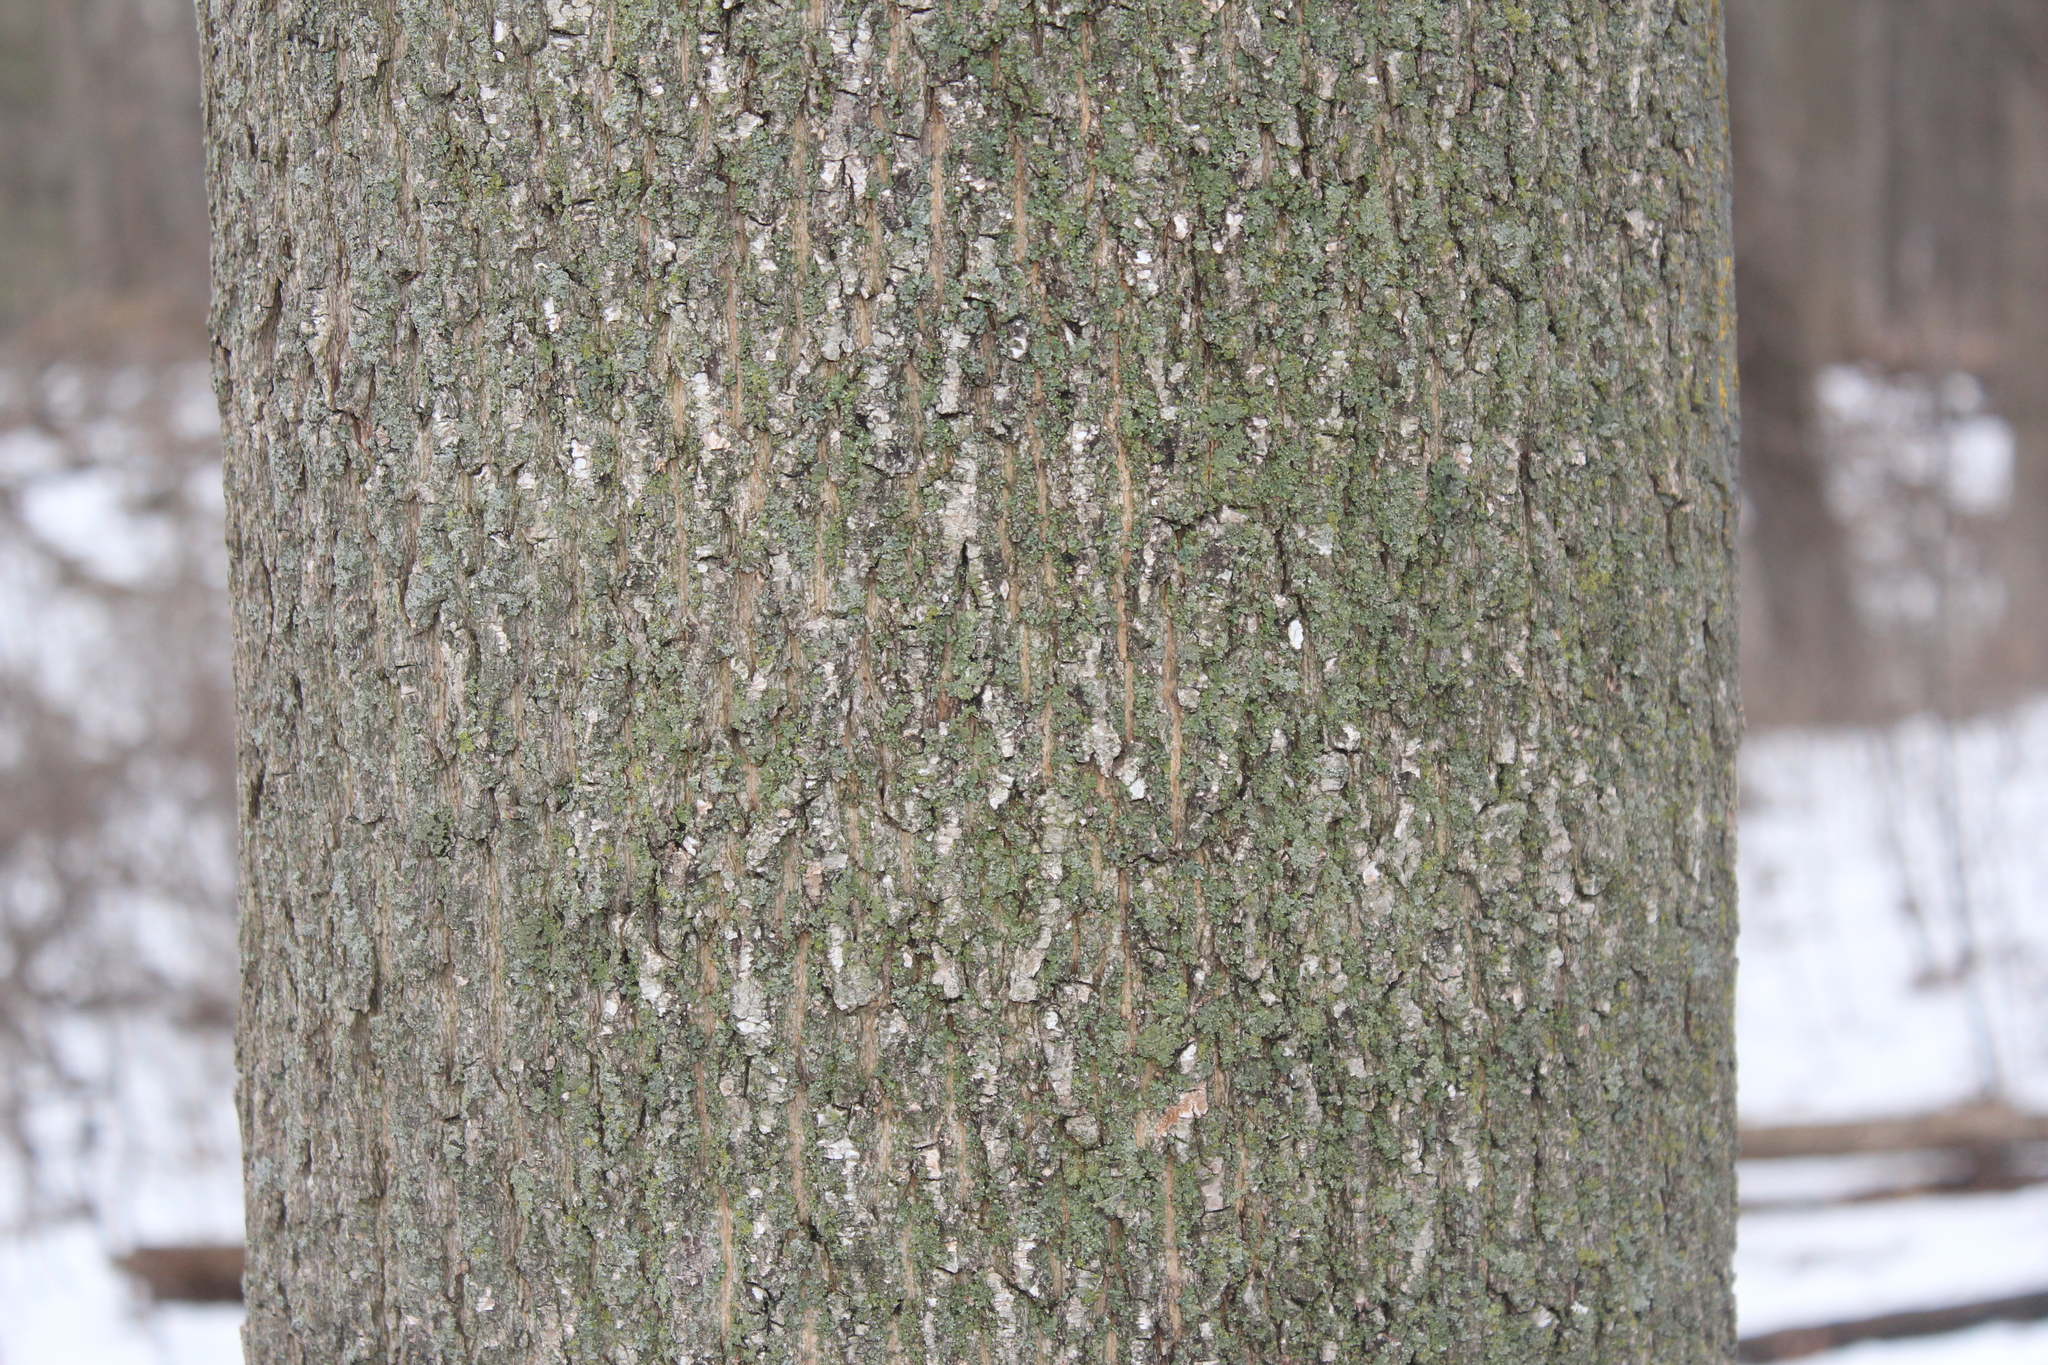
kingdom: Plantae
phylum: Tracheophyta
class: Magnoliopsida
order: Sapindales
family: Sapindaceae
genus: Acer
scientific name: Acer platanoides
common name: Norway maple
